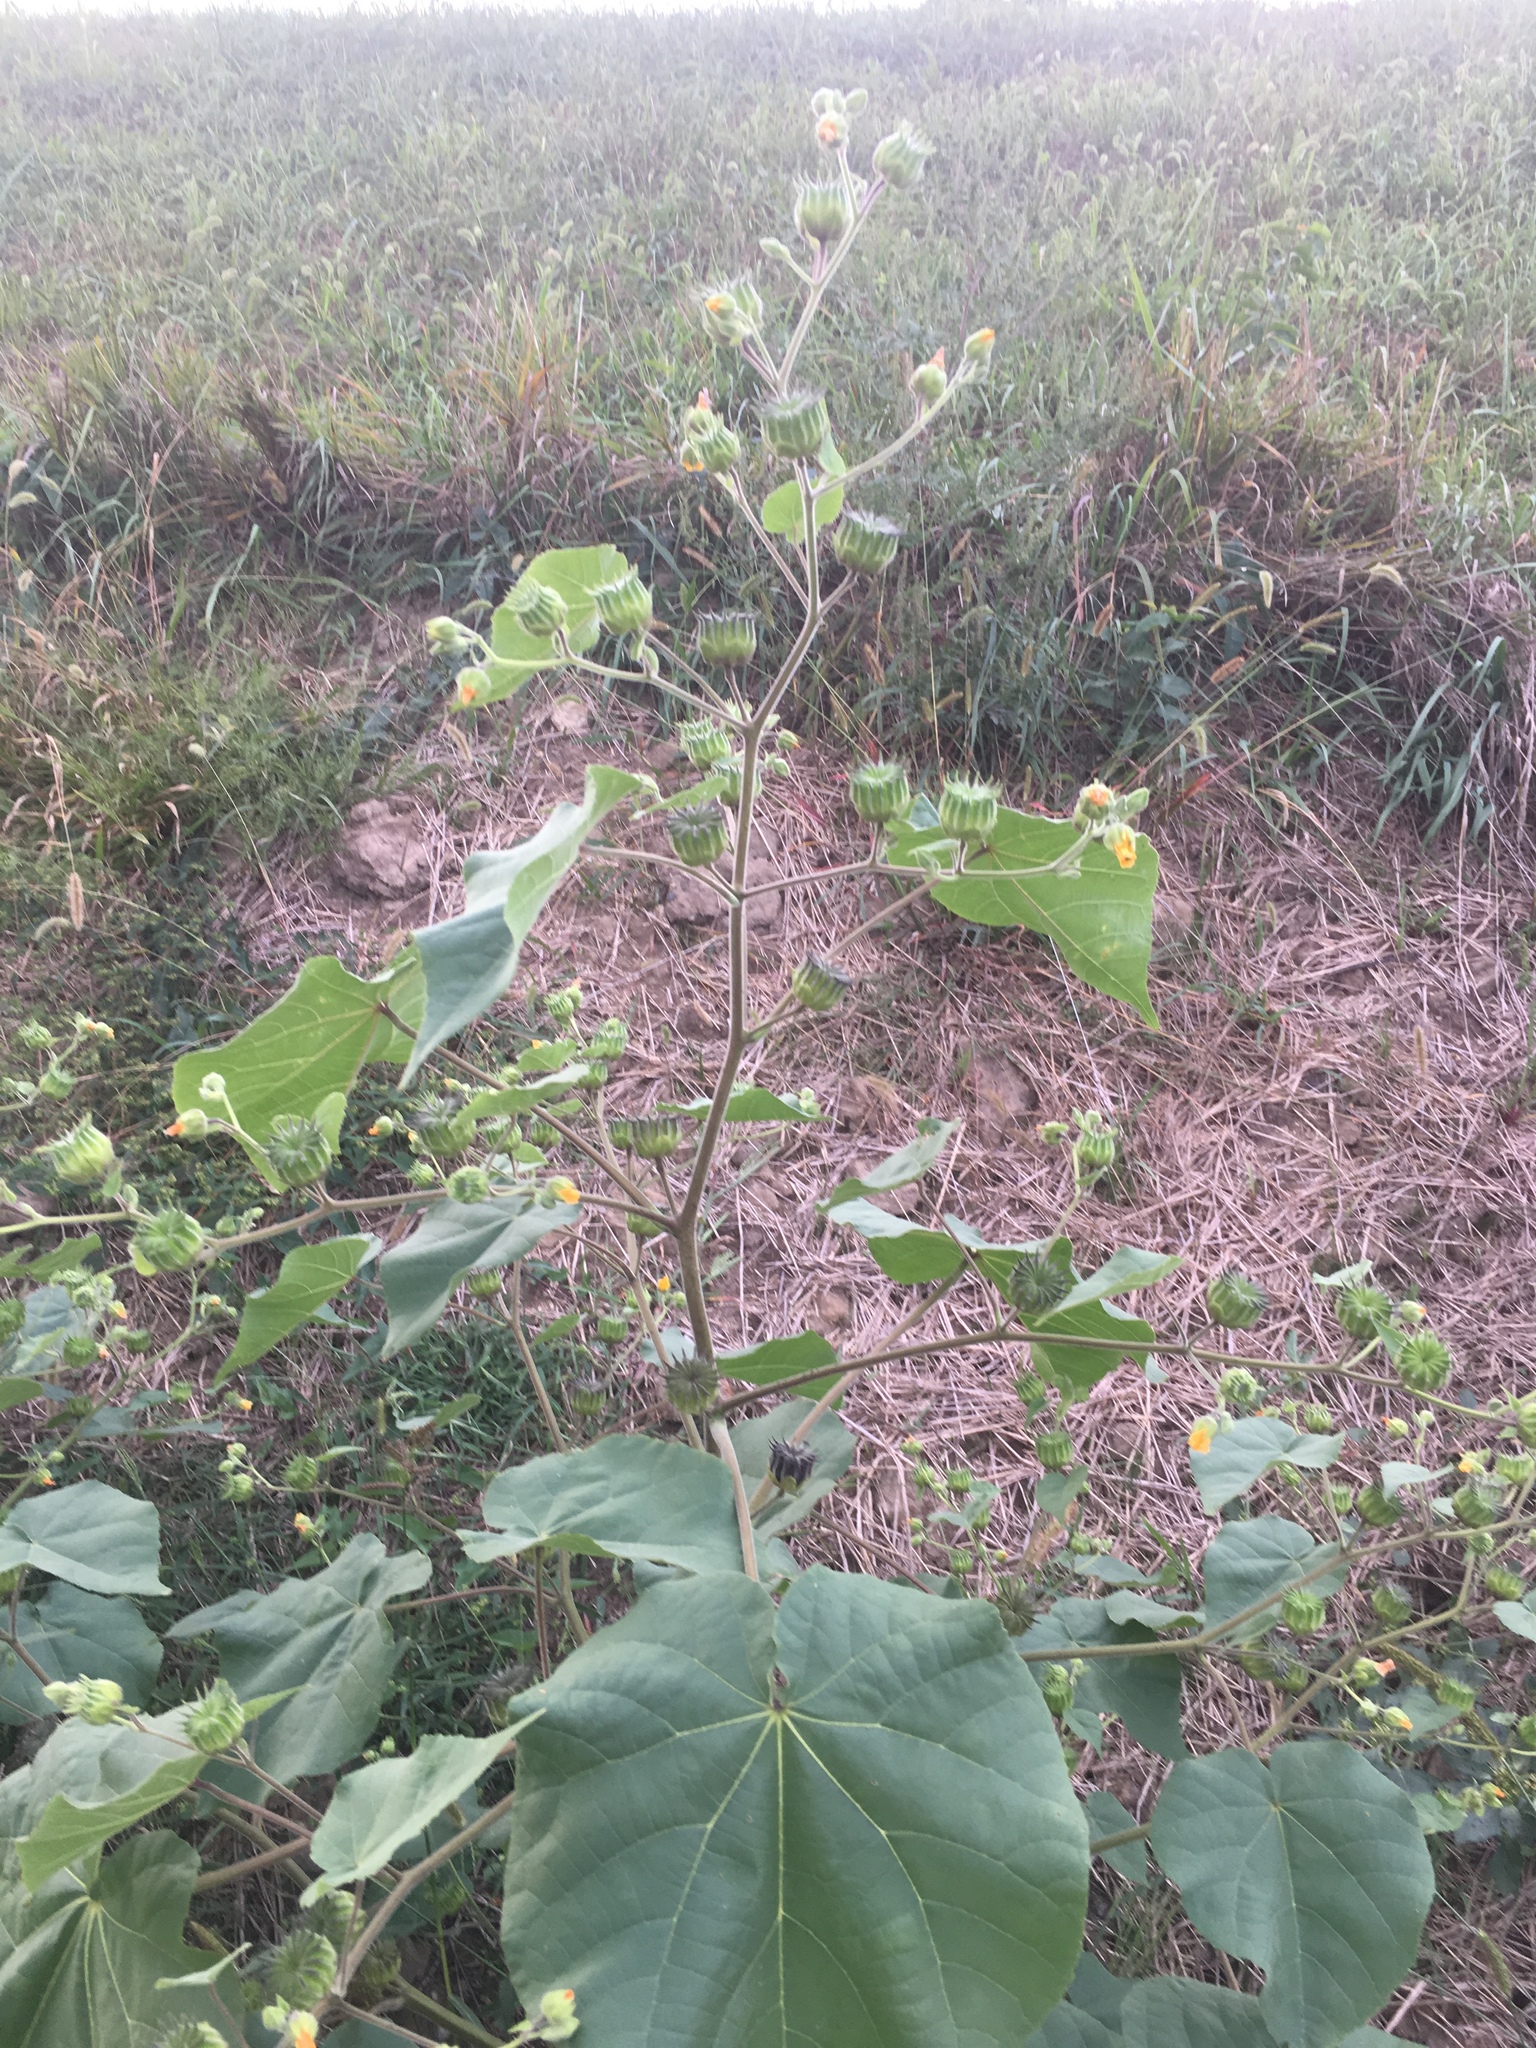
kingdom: Plantae
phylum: Tracheophyta
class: Magnoliopsida
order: Malvales
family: Malvaceae
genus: Abutilon
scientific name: Abutilon theophrasti
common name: Velvetleaf
